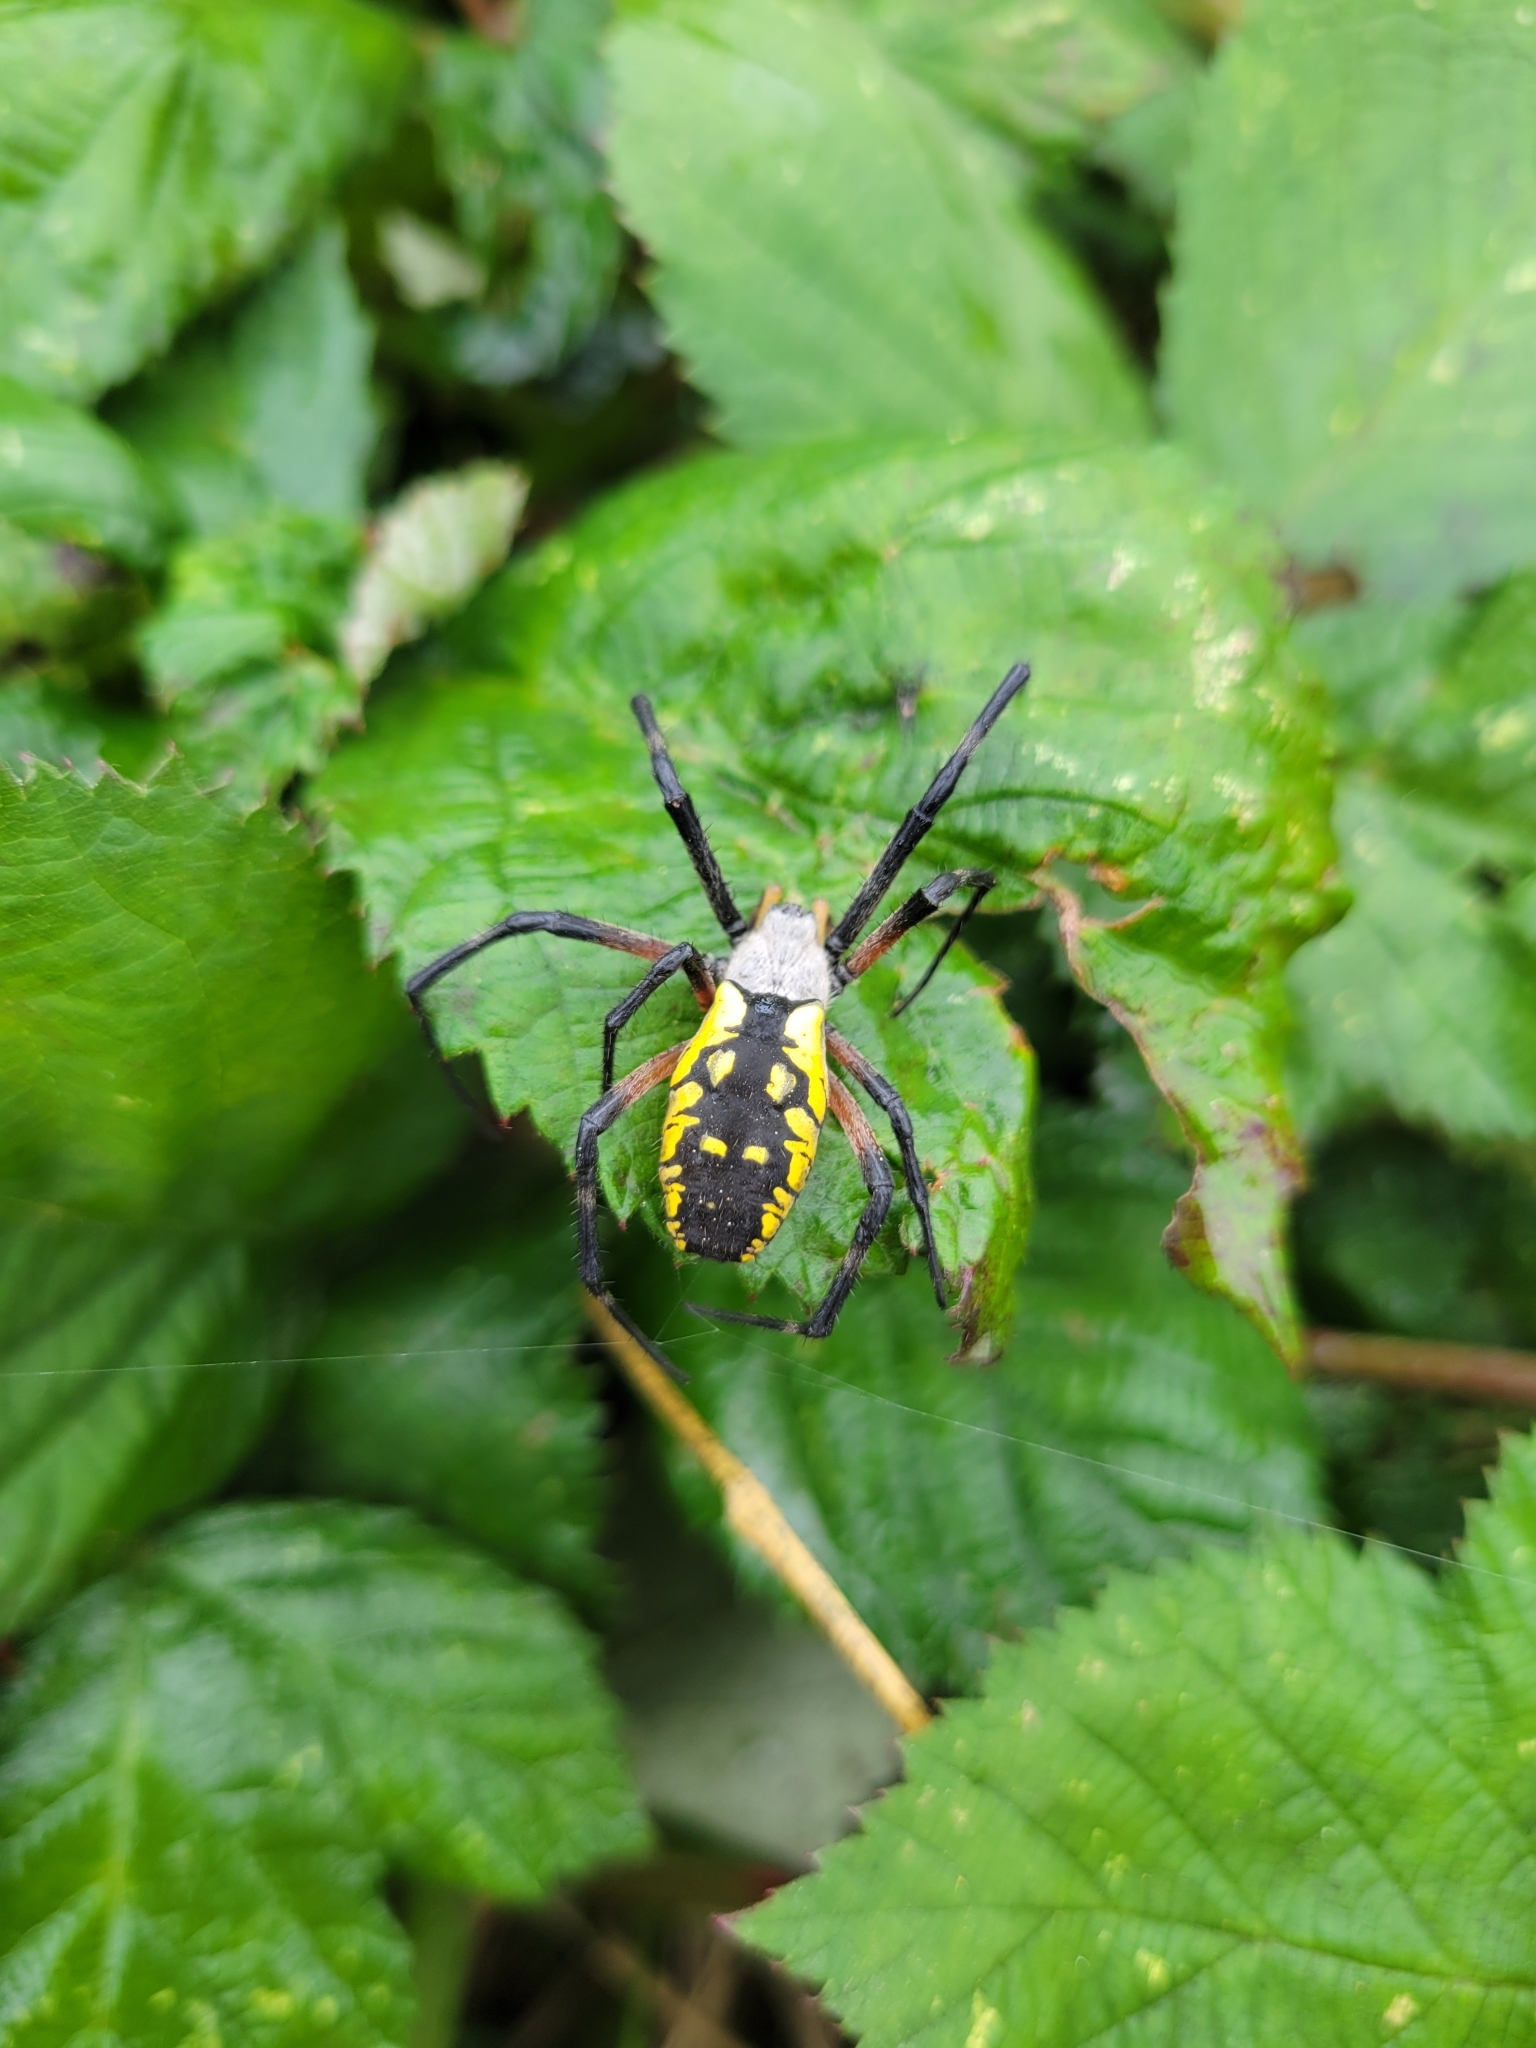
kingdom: Animalia
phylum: Arthropoda
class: Arachnida
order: Araneae
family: Araneidae
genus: Argiope
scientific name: Argiope aurantia
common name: Orb weavers
